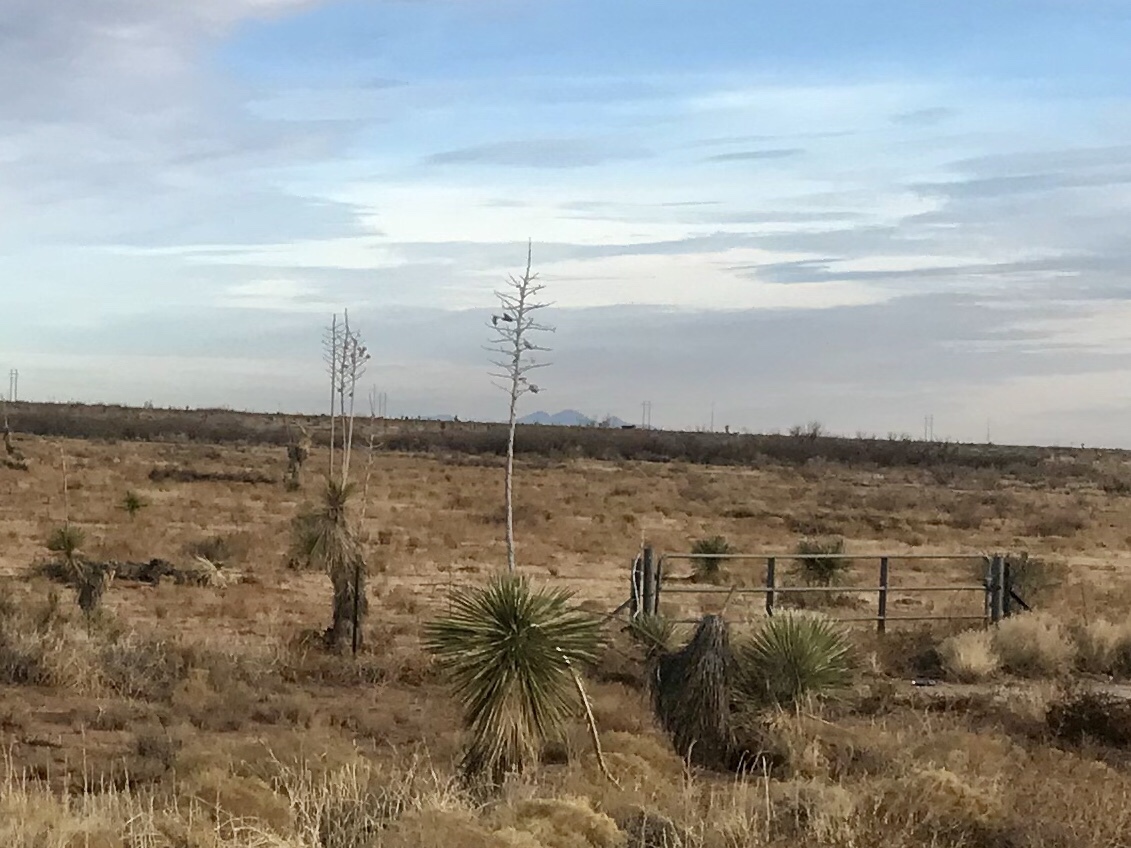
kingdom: Plantae
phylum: Tracheophyta
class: Liliopsida
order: Asparagales
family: Asparagaceae
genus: Yucca
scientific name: Yucca elata
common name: Palmella
